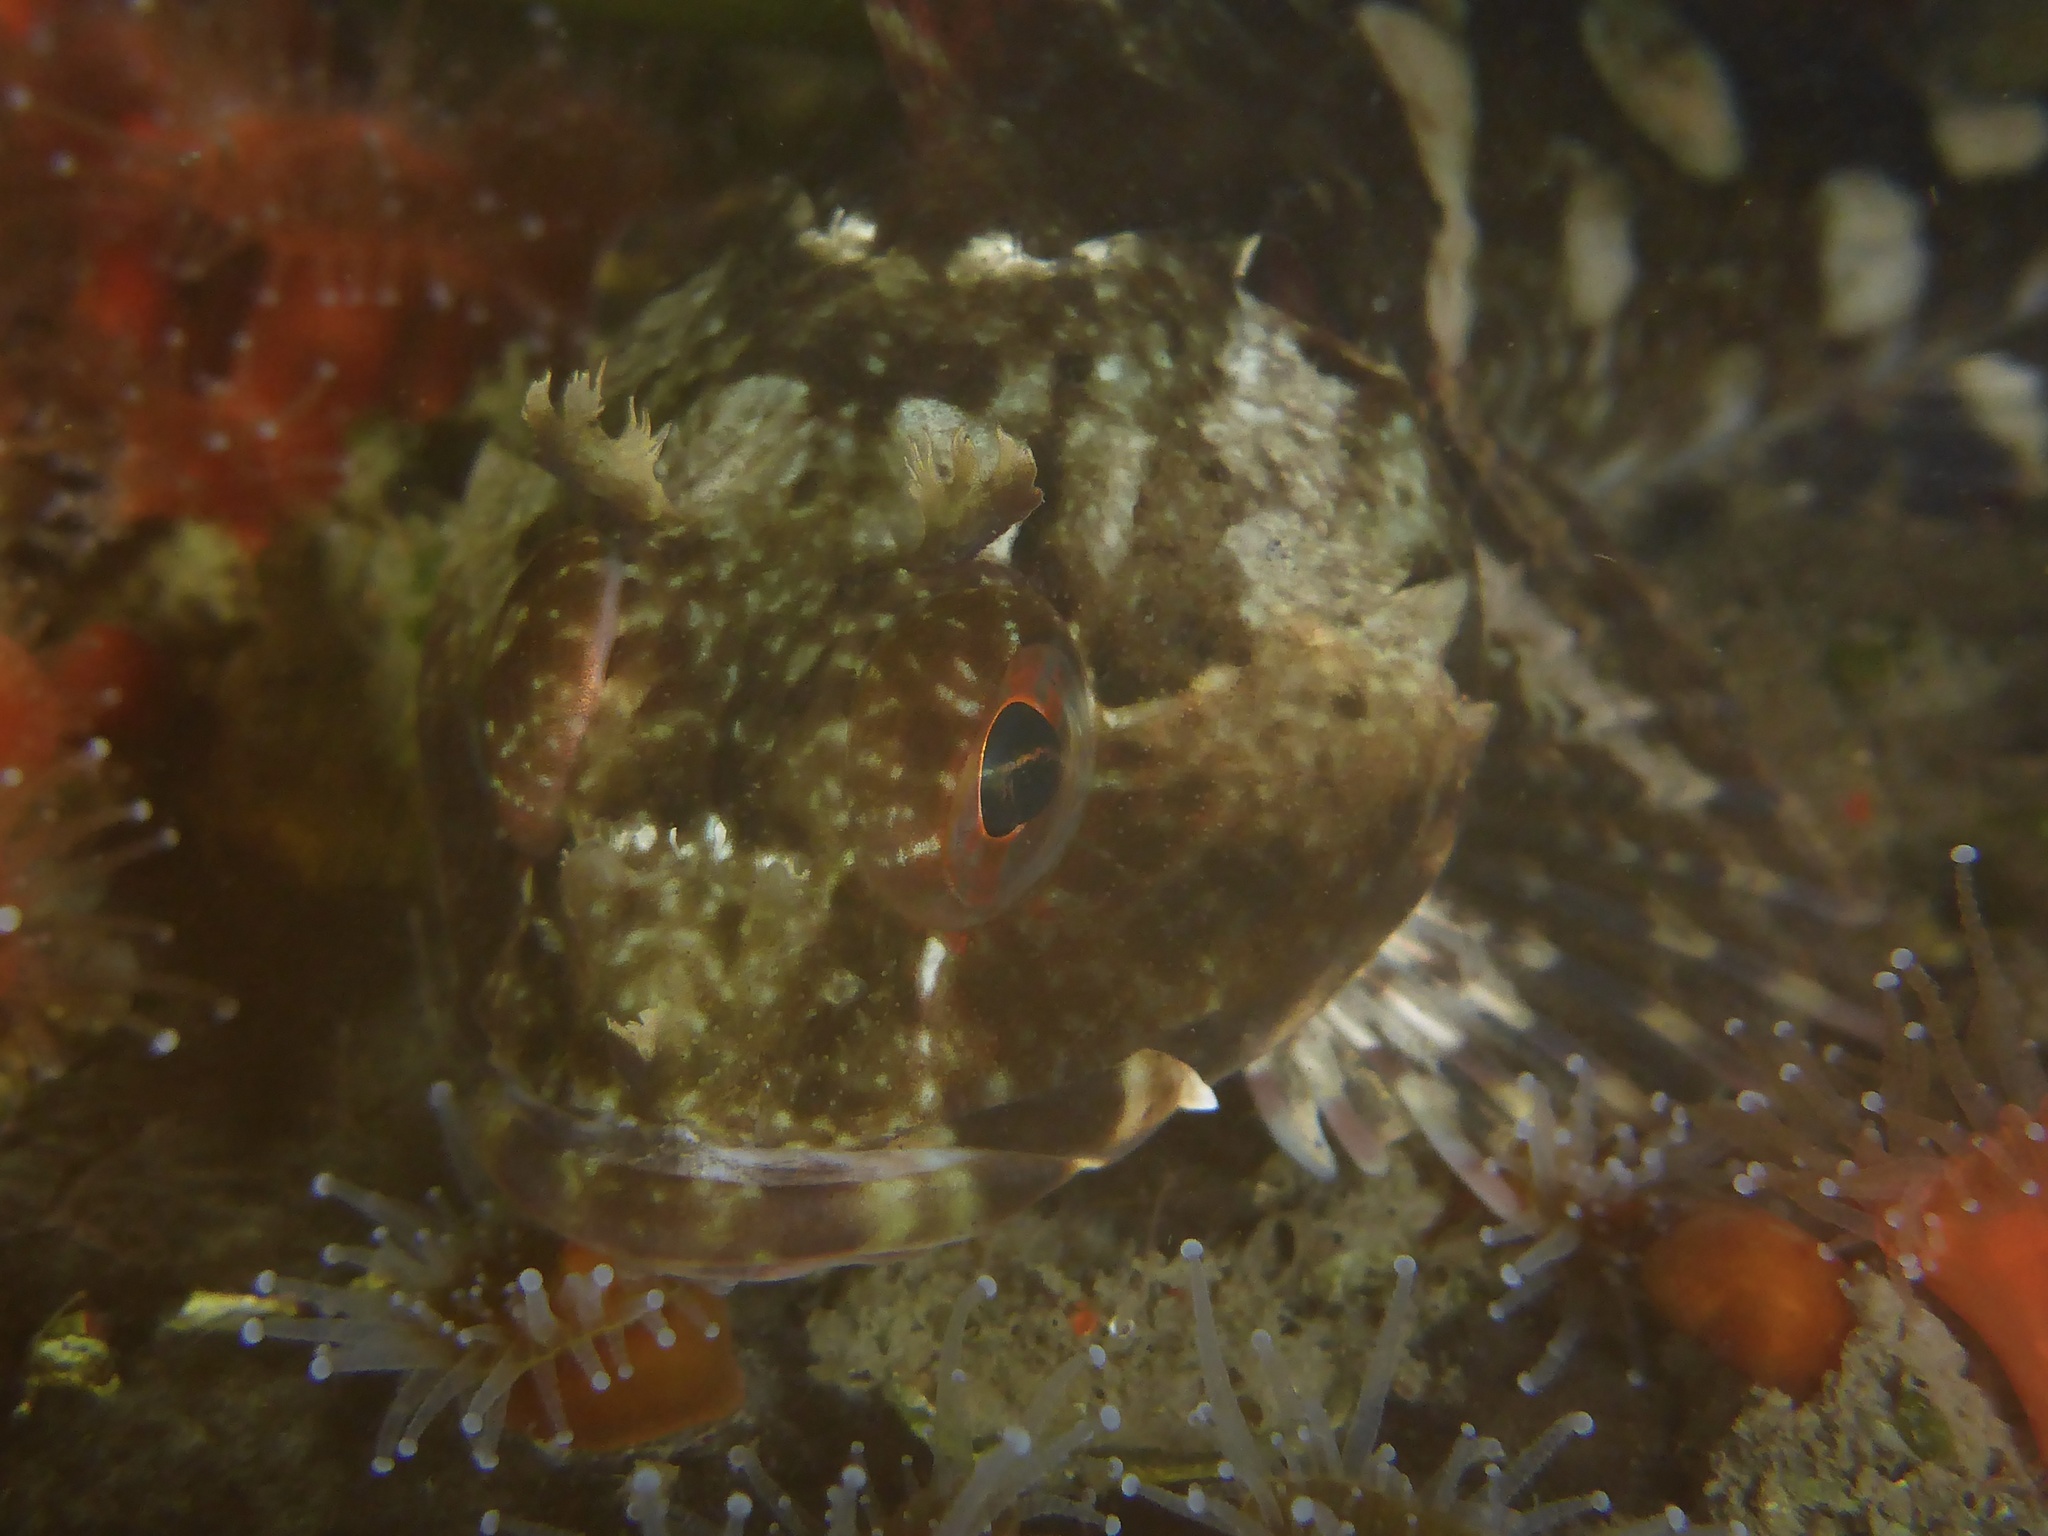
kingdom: Animalia
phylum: Chordata
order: Scorpaeniformes
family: Cottidae
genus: Scorpaenichthys
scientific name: Scorpaenichthys marmoratus
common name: Cabezon
